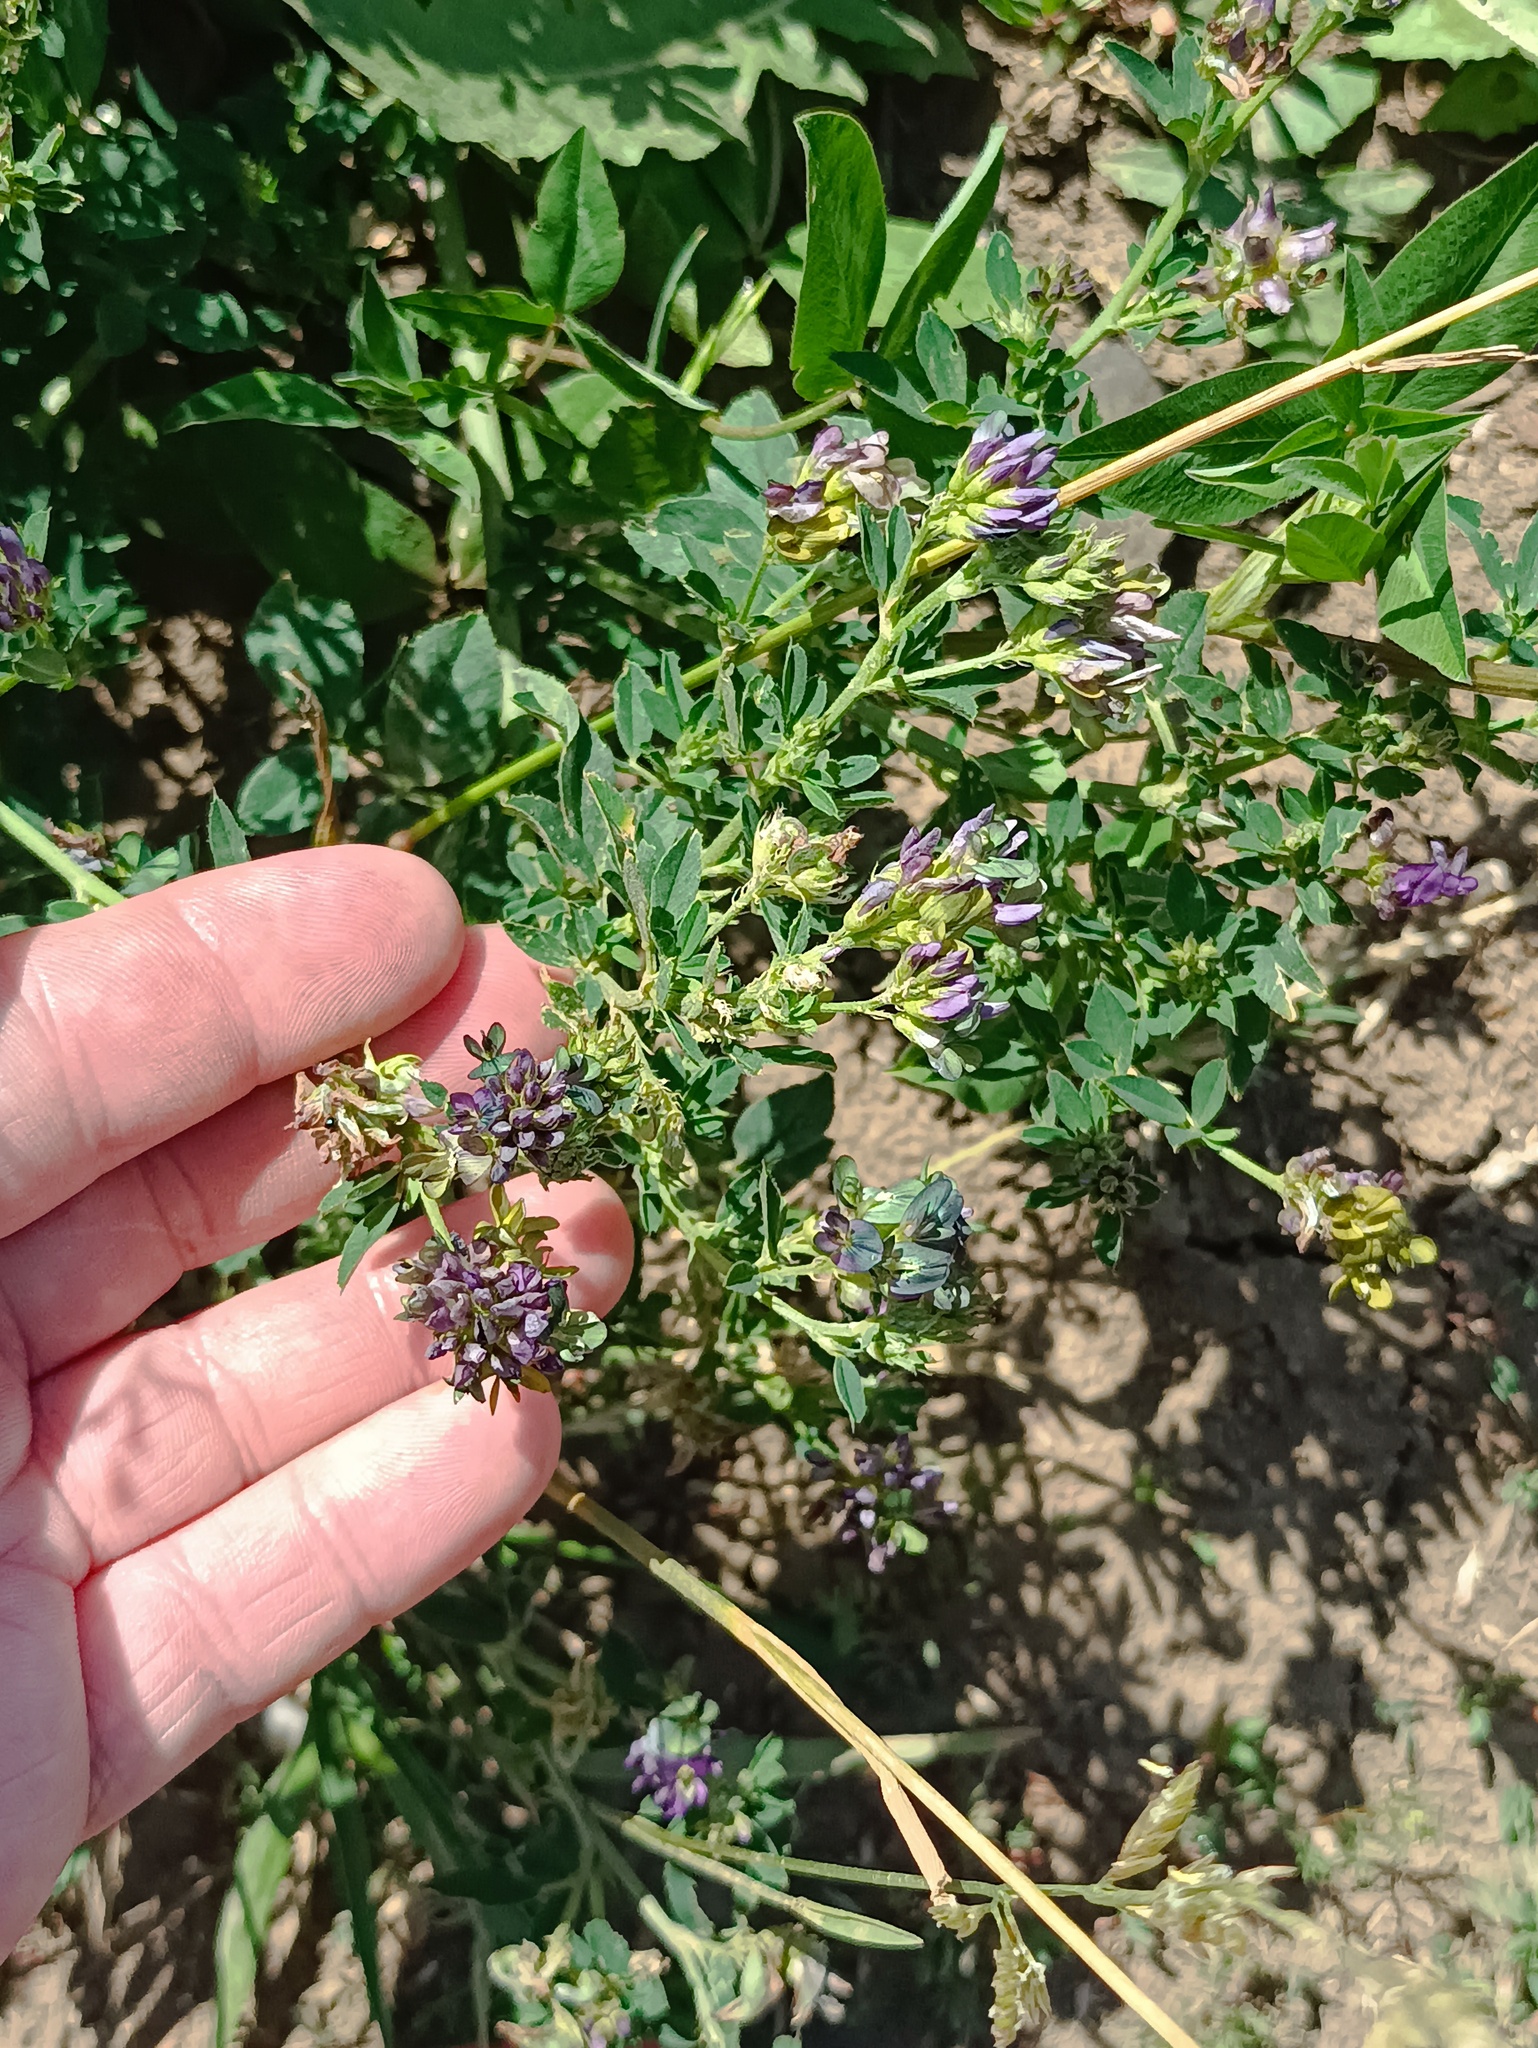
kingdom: Plantae
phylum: Tracheophyta
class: Magnoliopsida
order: Fabales
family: Fabaceae
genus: Medicago
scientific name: Medicago varia
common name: Sand lucerne
